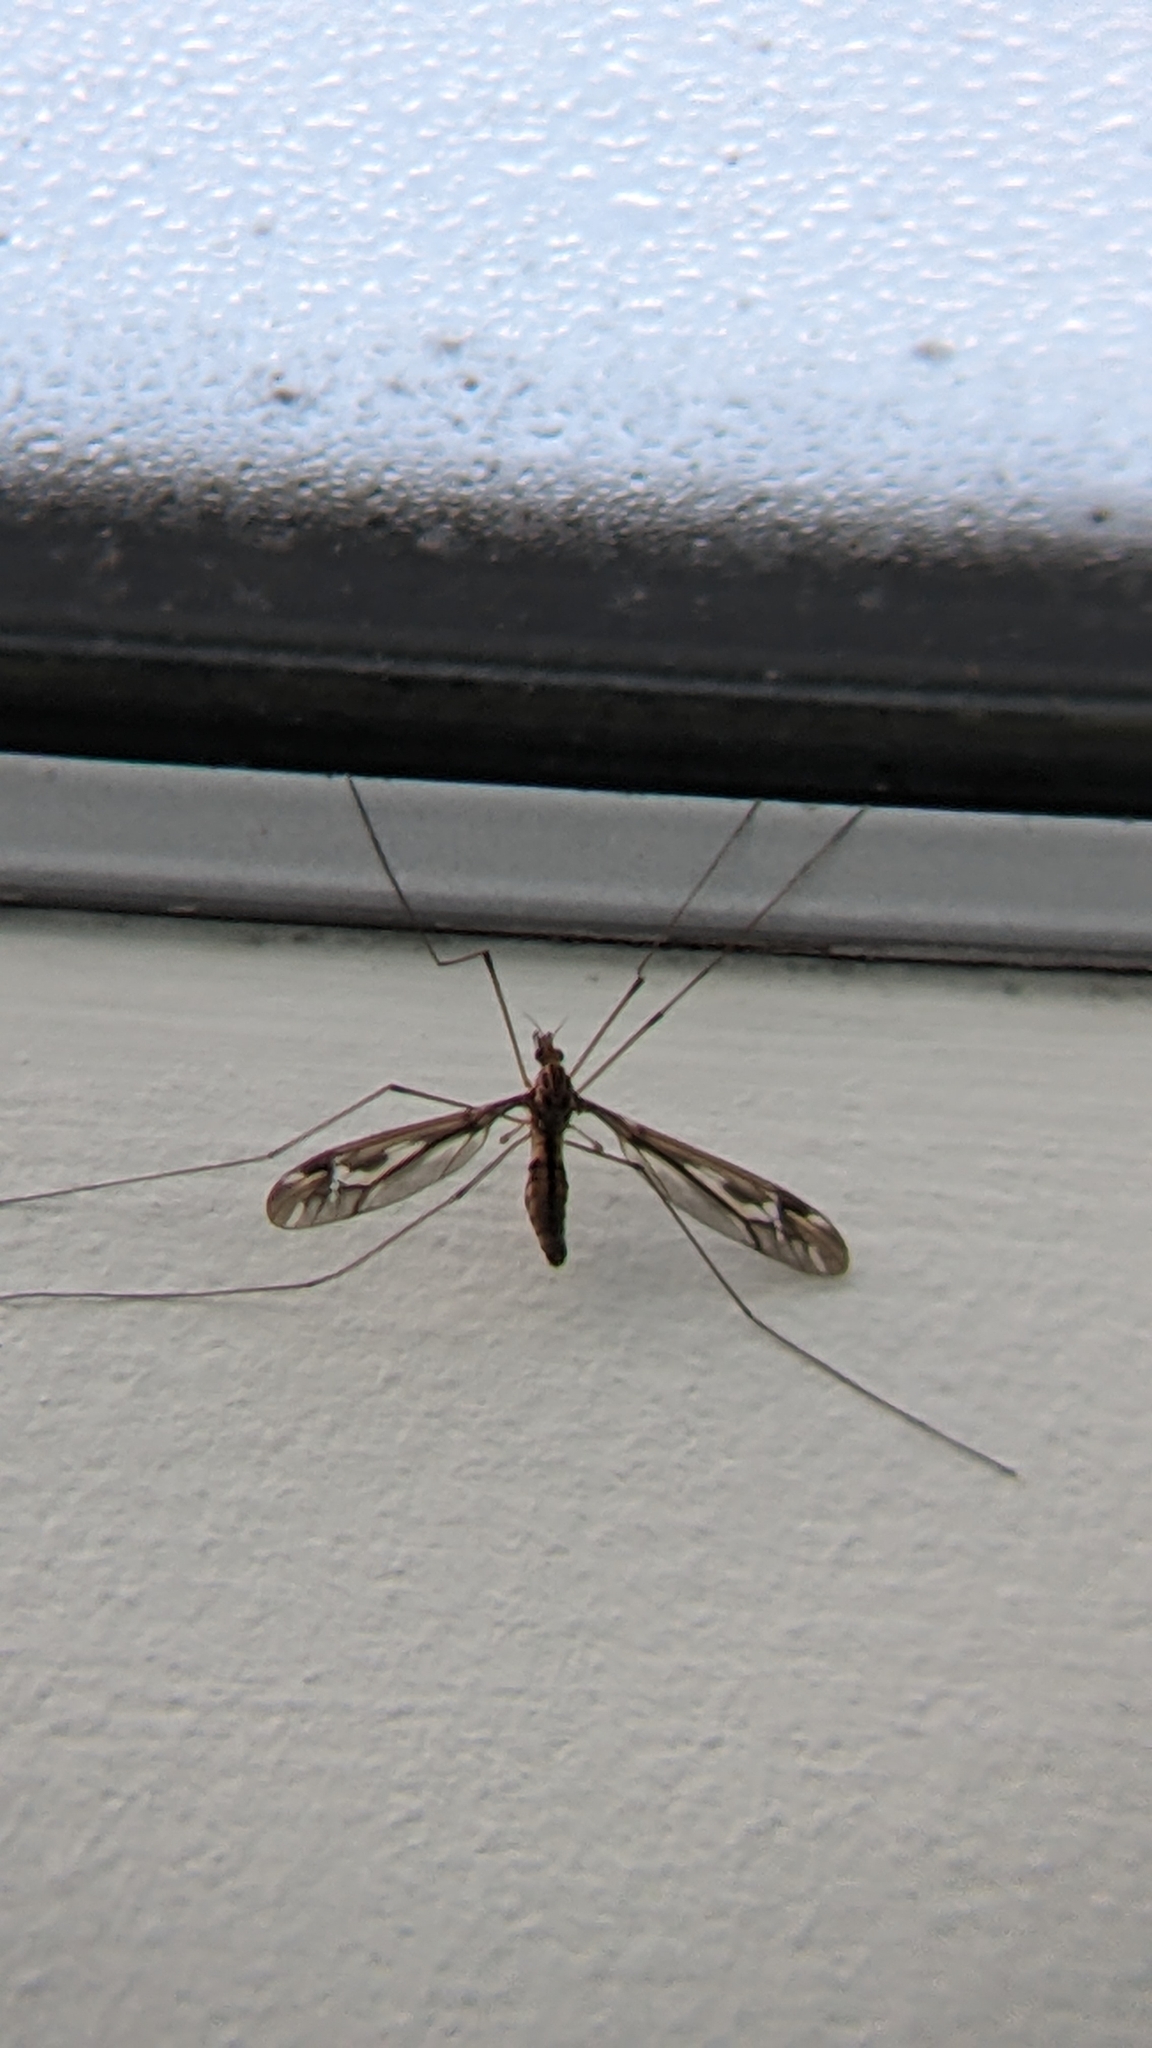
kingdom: Animalia
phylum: Arthropoda
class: Insecta
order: Diptera
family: Tipulidae
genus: Leptotarsus
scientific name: Leptotarsus huttoni
